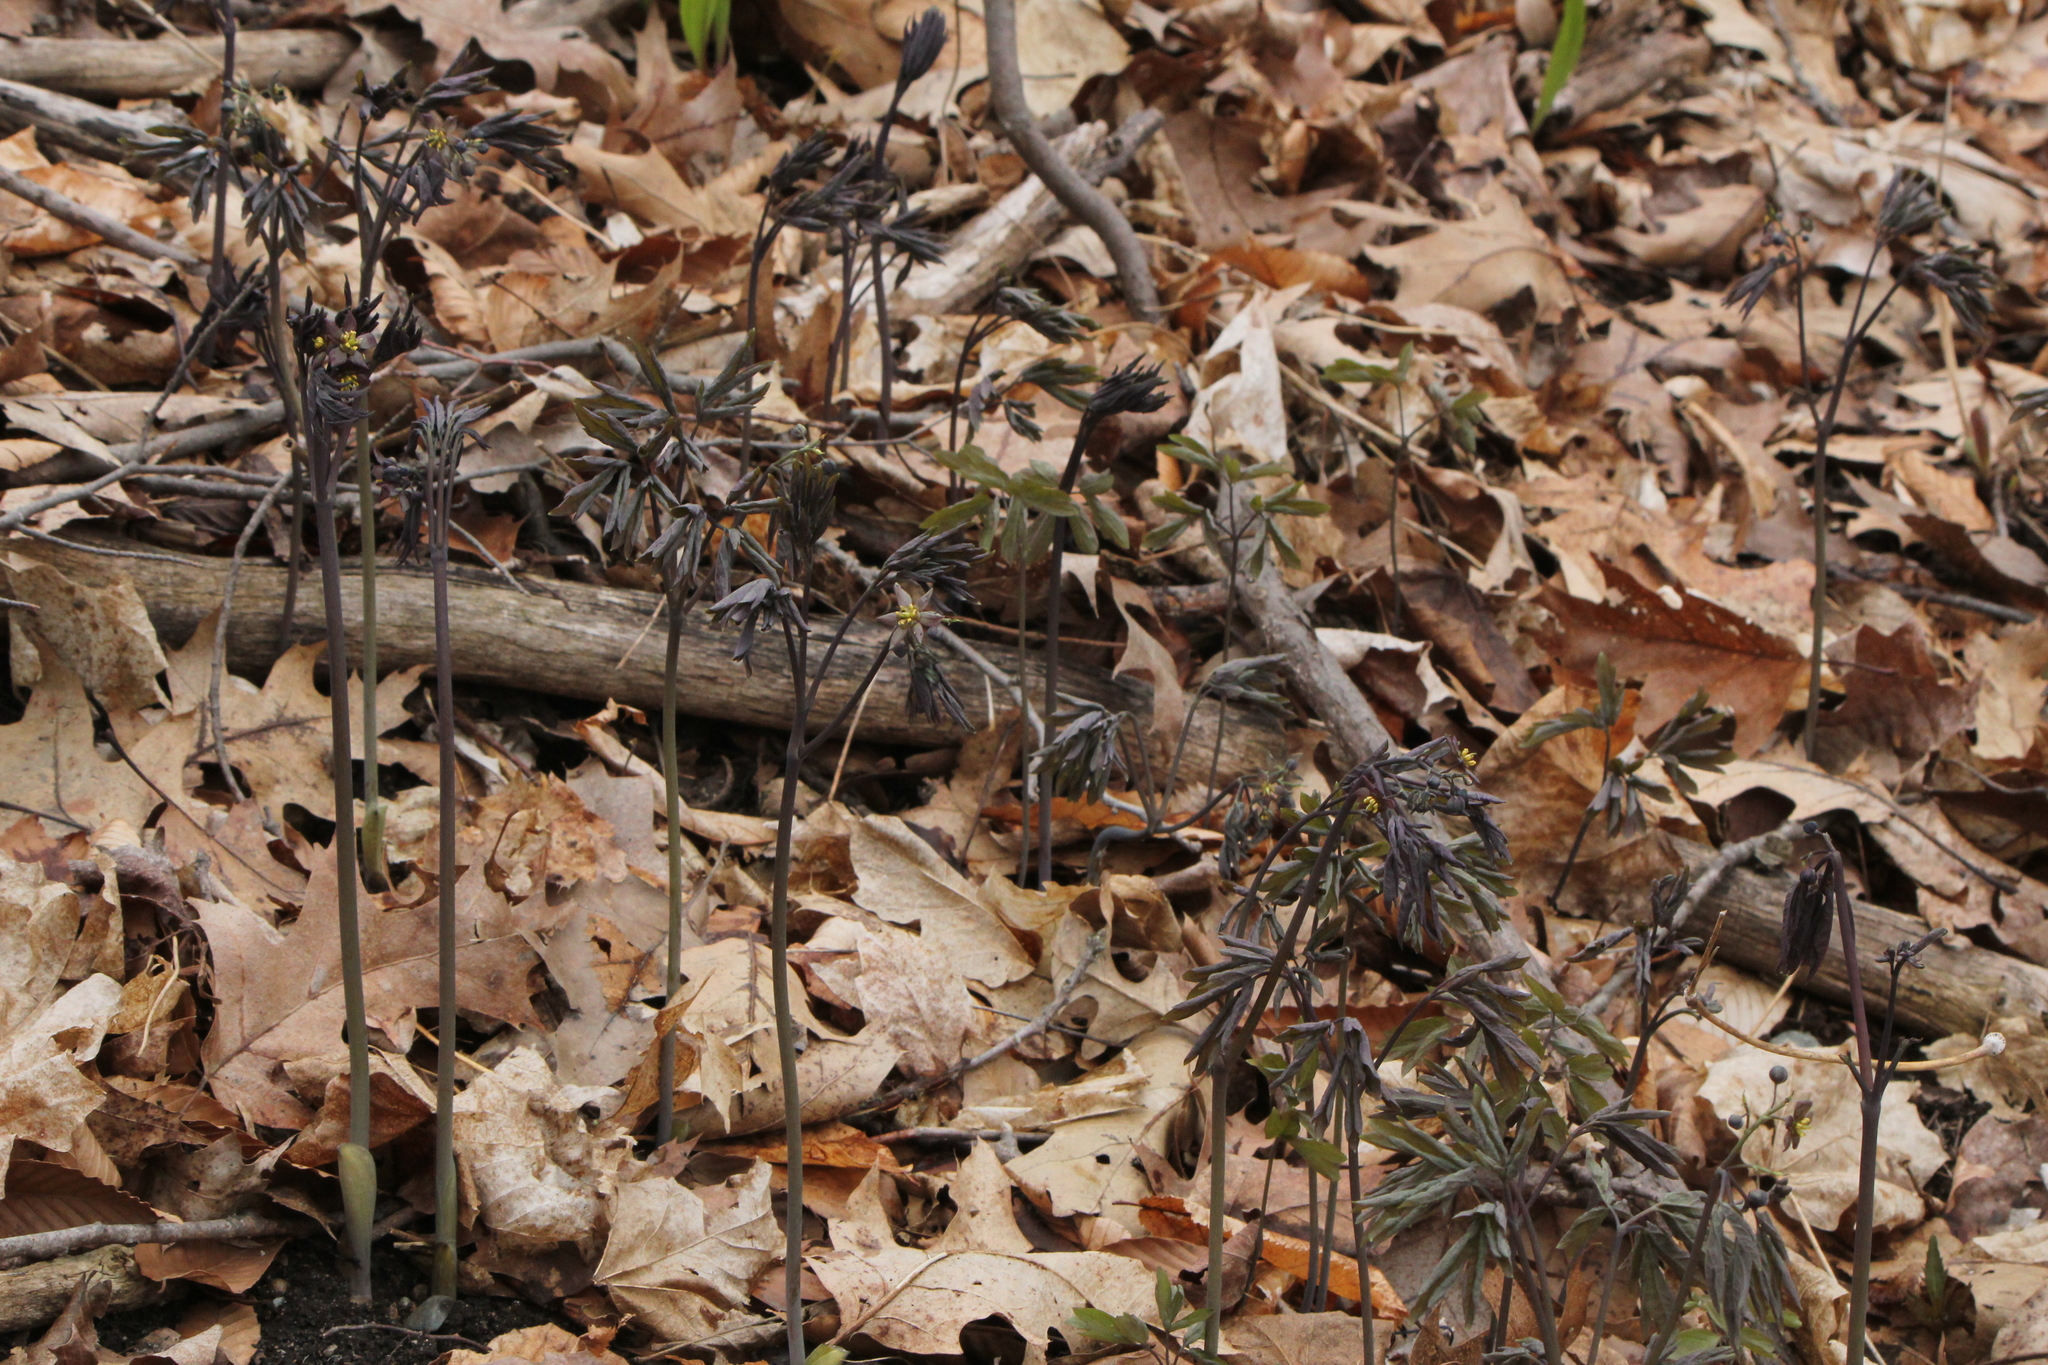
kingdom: Plantae
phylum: Tracheophyta
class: Magnoliopsida
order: Ranunculales
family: Berberidaceae
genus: Caulophyllum
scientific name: Caulophyllum giganteum
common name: Blue cohosh
